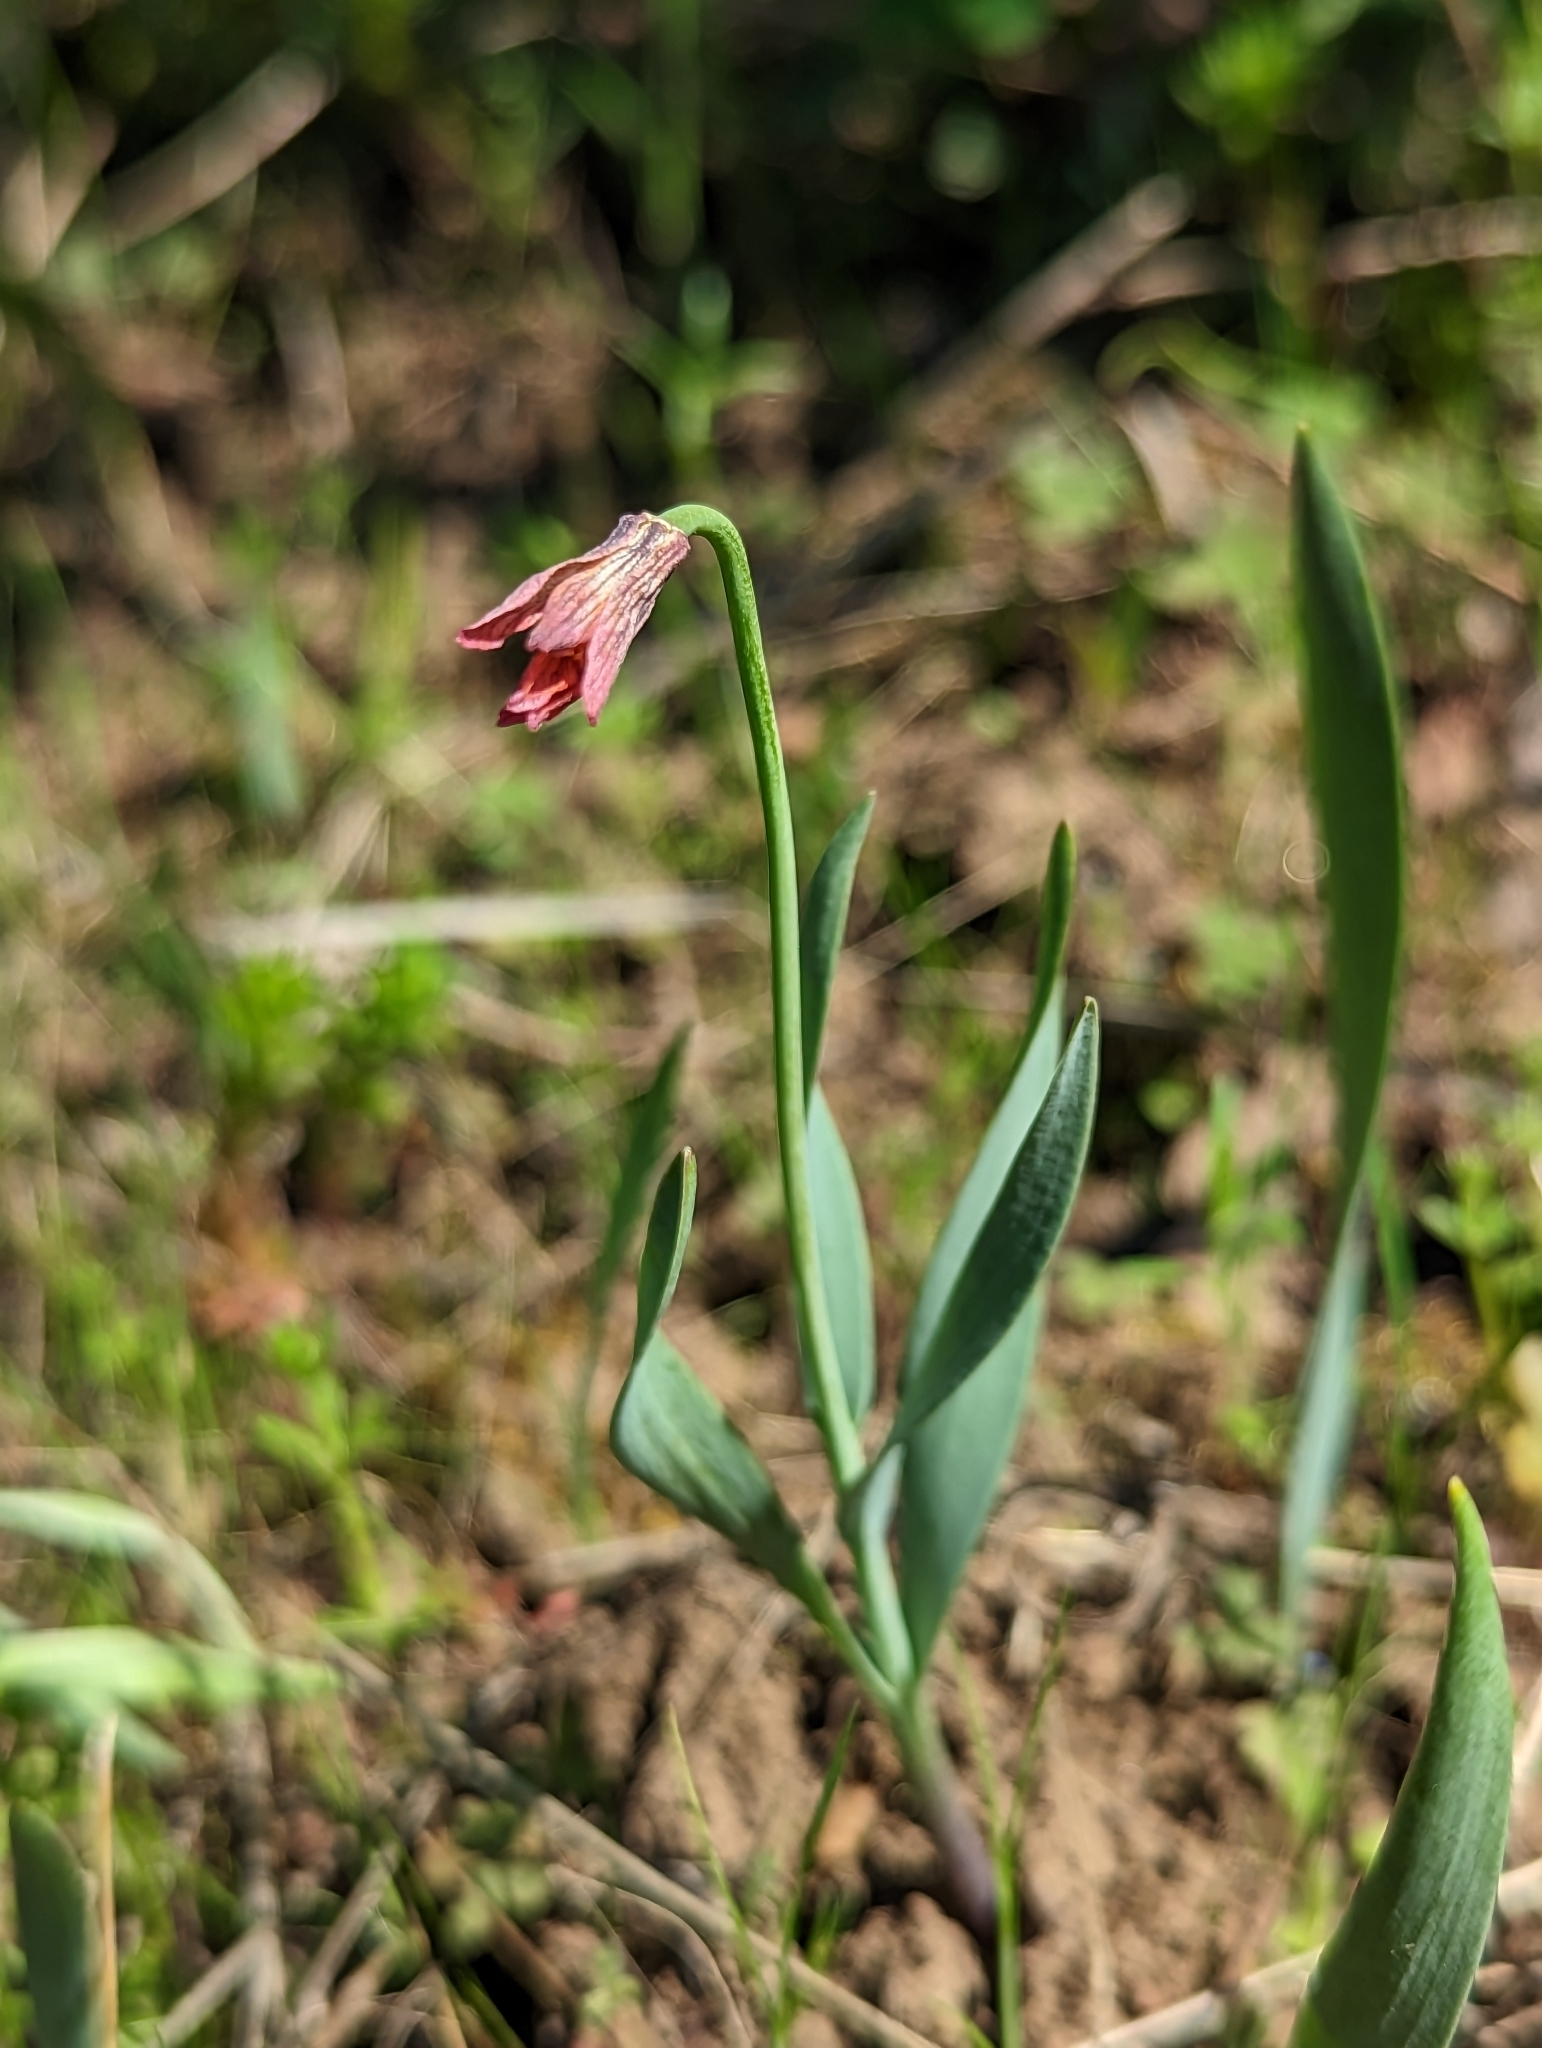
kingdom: Plantae
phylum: Tracheophyta
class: Liliopsida
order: Liliales
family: Liliaceae
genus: Fritillaria
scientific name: Fritillaria pudica
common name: Yellow fritillary
